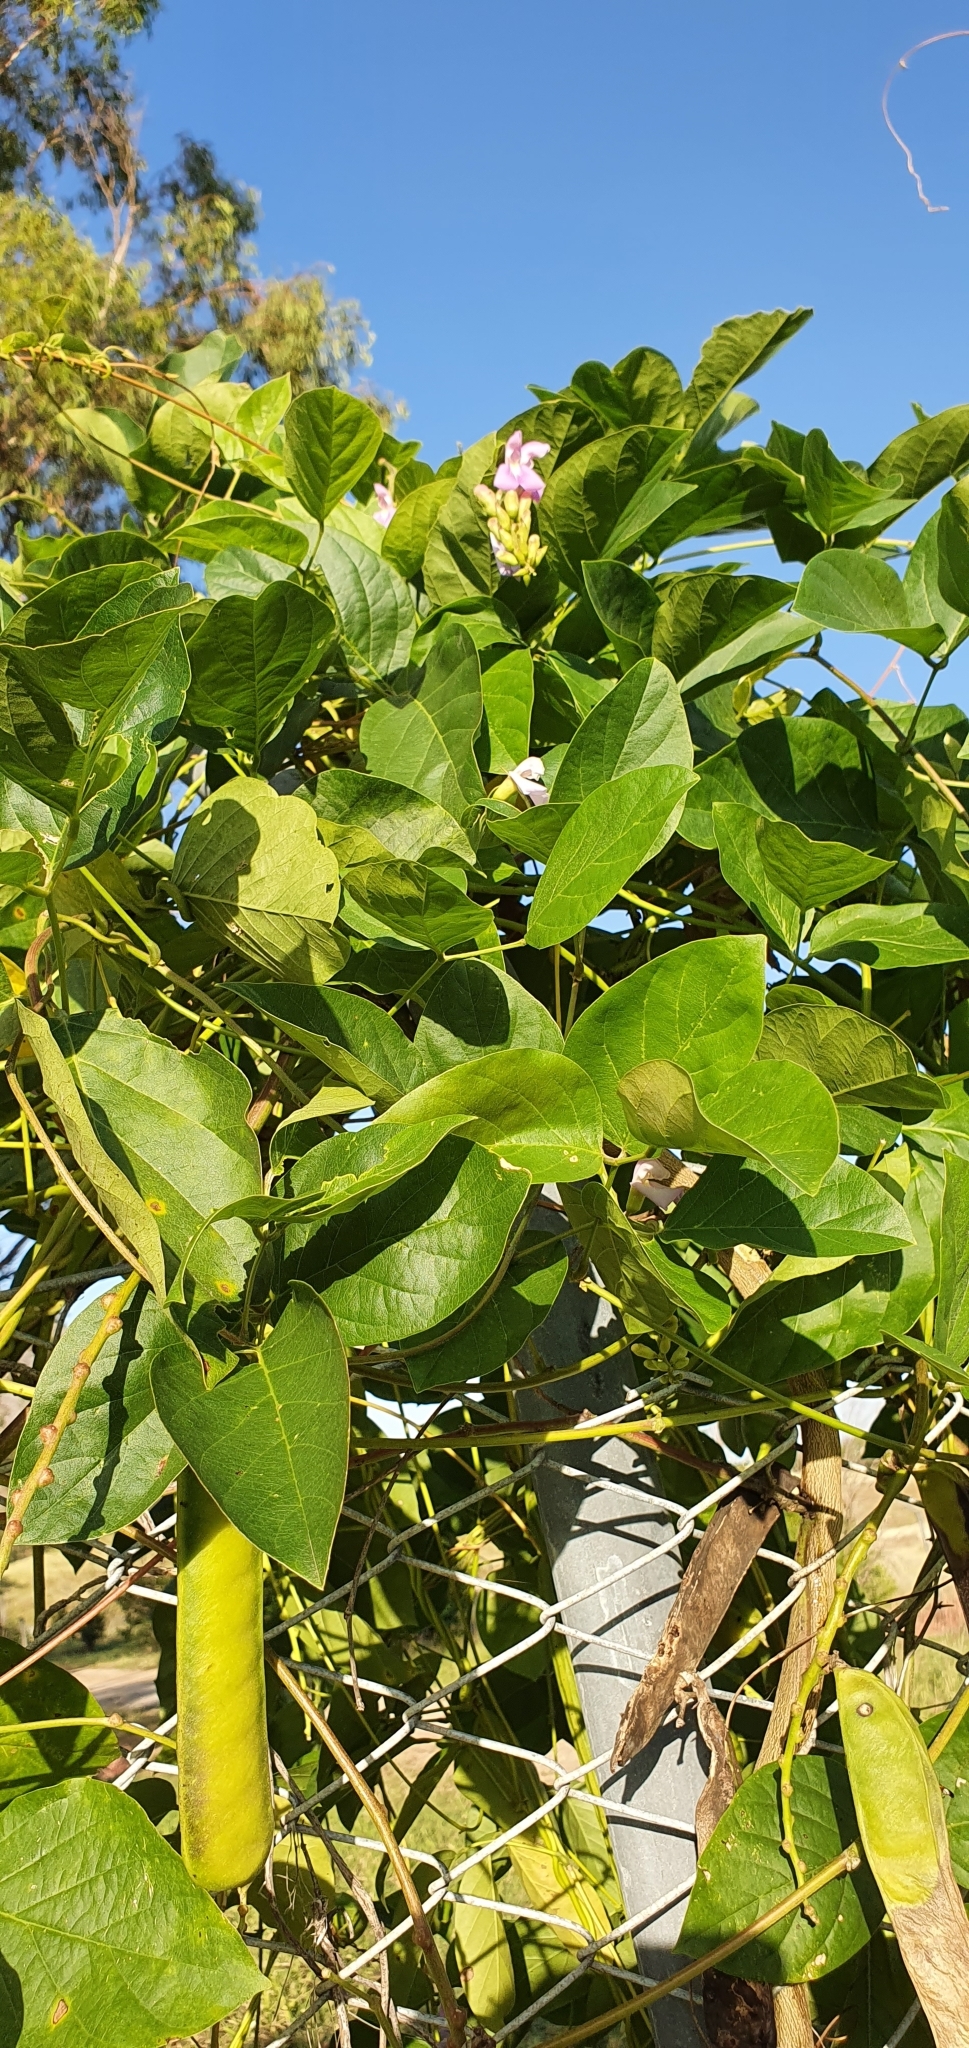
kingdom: Plantae
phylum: Tracheophyta
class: Magnoliopsida
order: Fabales
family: Fabaceae
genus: Canavalia
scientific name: Canavalia papuana
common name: Jack bean
